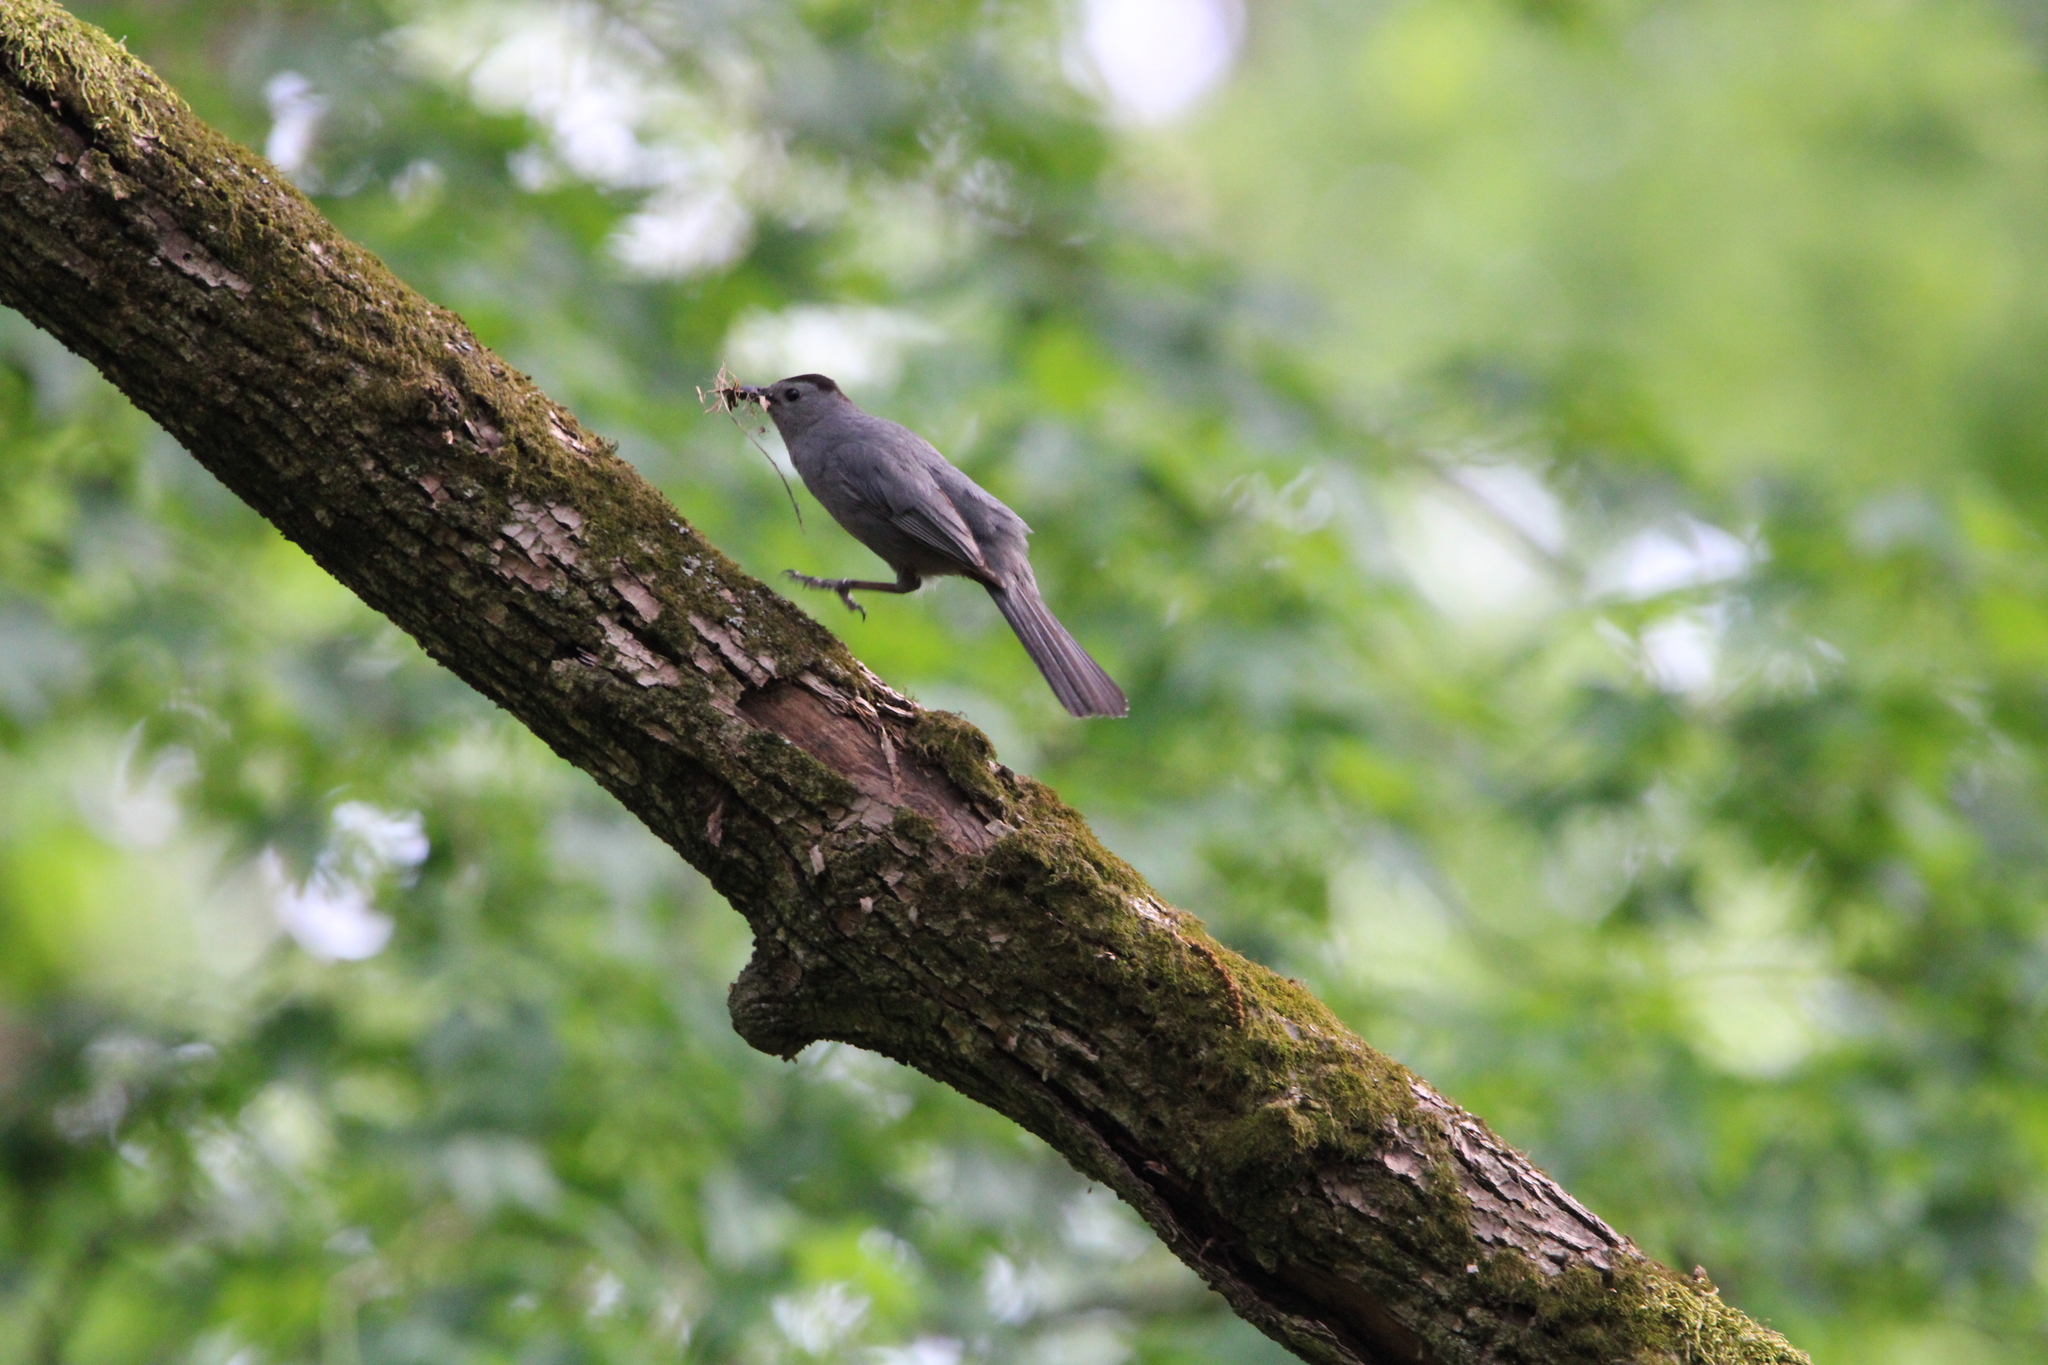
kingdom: Animalia
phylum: Chordata
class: Aves
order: Passeriformes
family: Mimidae
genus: Dumetella
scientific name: Dumetella carolinensis
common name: Gray catbird
